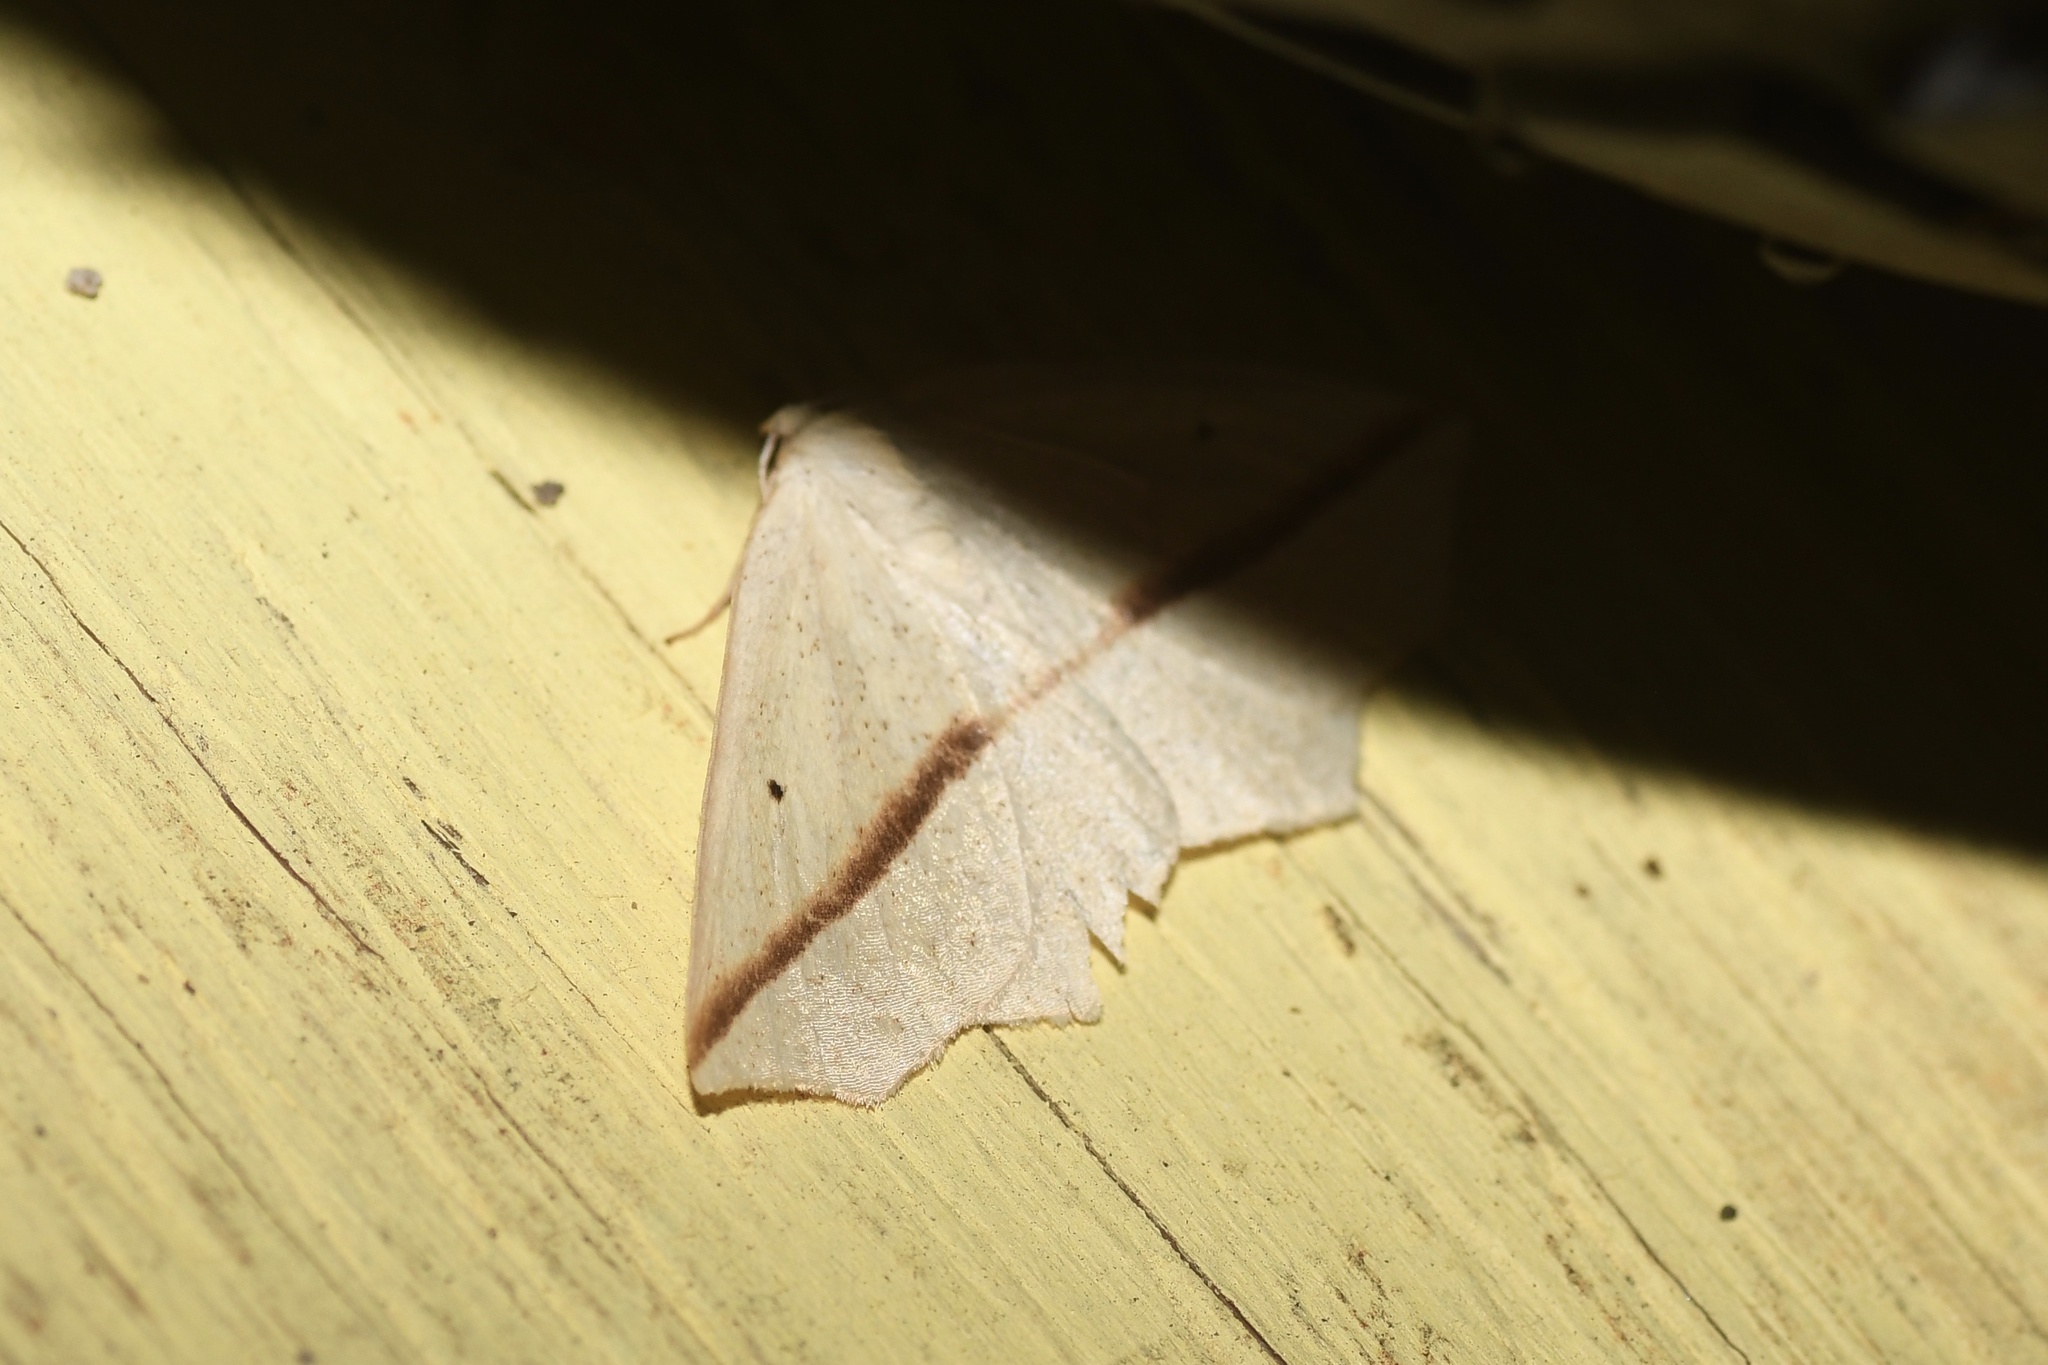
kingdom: Animalia
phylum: Arthropoda
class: Insecta
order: Lepidoptera
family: Geometridae
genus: Tetracis
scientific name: Tetracis crocallata
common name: Yellow slant-line
